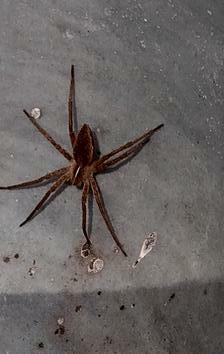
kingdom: Animalia
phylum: Arthropoda
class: Arachnida
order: Araneae
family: Pisauridae
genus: Pisaura
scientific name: Pisaura mirabilis
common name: Tent spider
